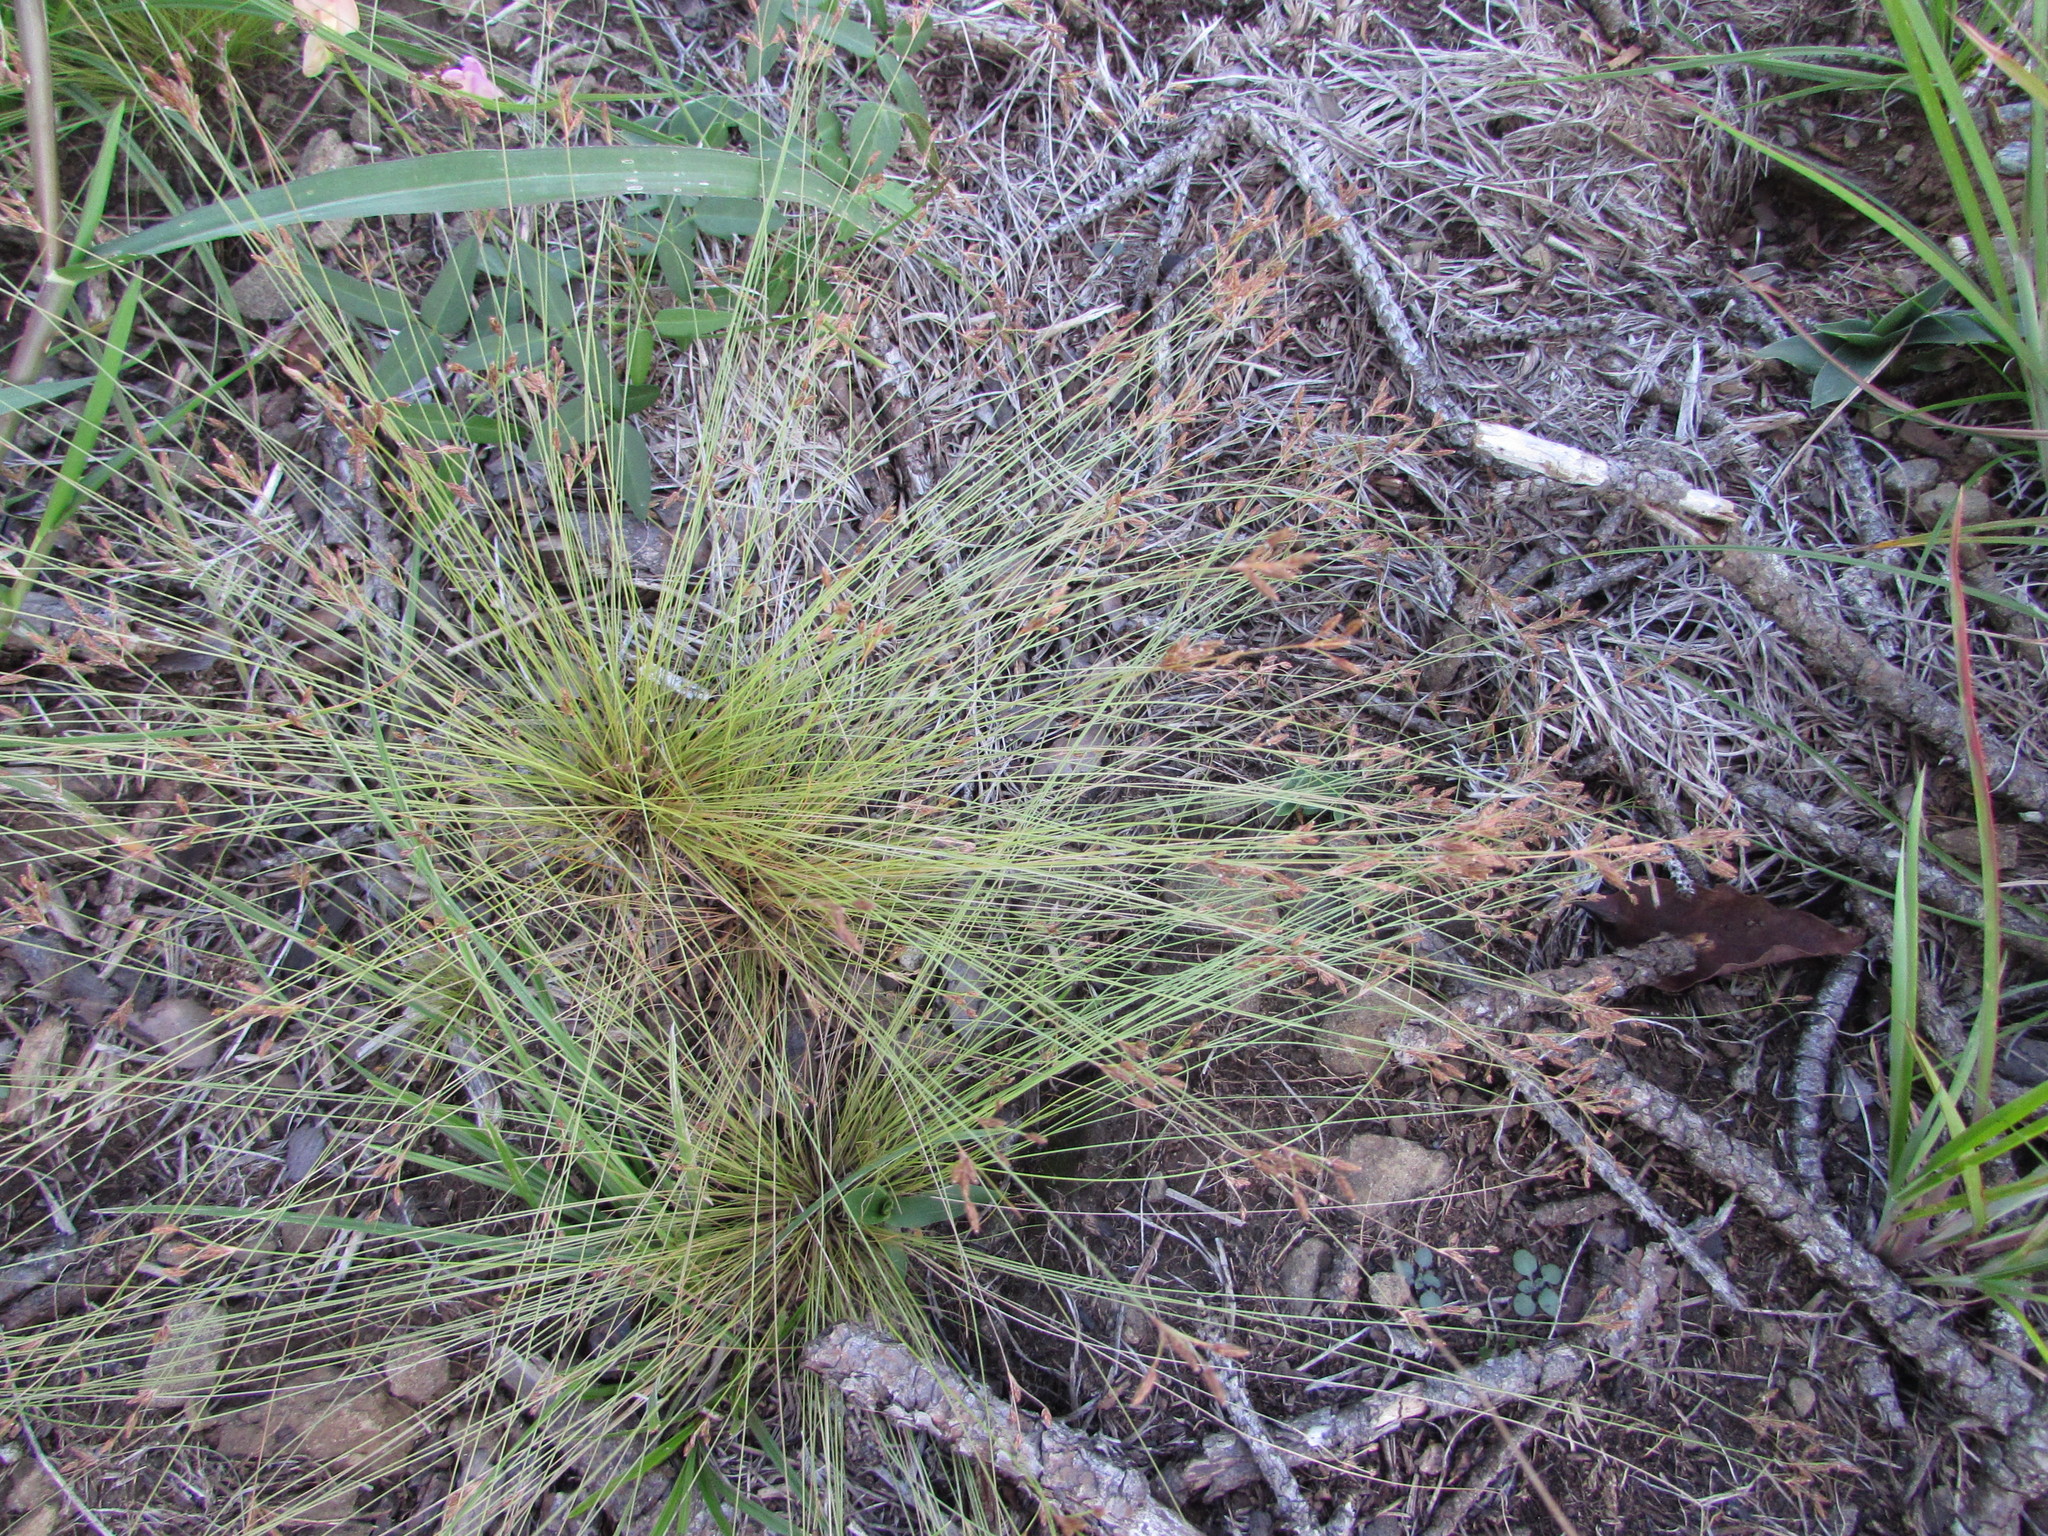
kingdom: Plantae
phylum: Tracheophyta
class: Liliopsida
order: Poales
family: Cyperaceae
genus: Bulbostylis
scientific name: Bulbostylis capillaris
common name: Densetuft hairsedge
